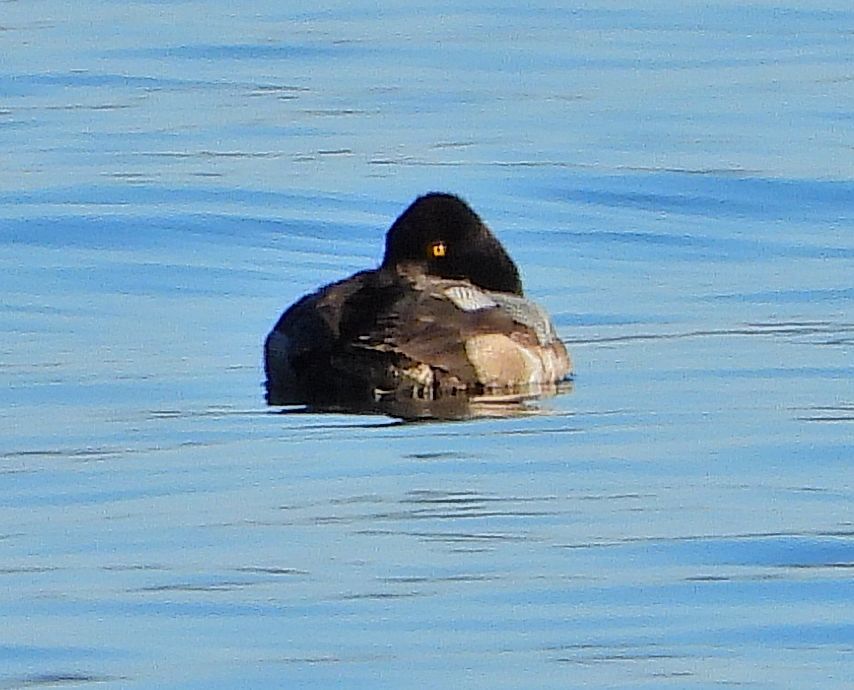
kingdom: Animalia
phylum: Chordata
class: Aves
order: Anseriformes
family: Anatidae
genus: Aythya
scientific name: Aythya affinis
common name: Lesser scaup
